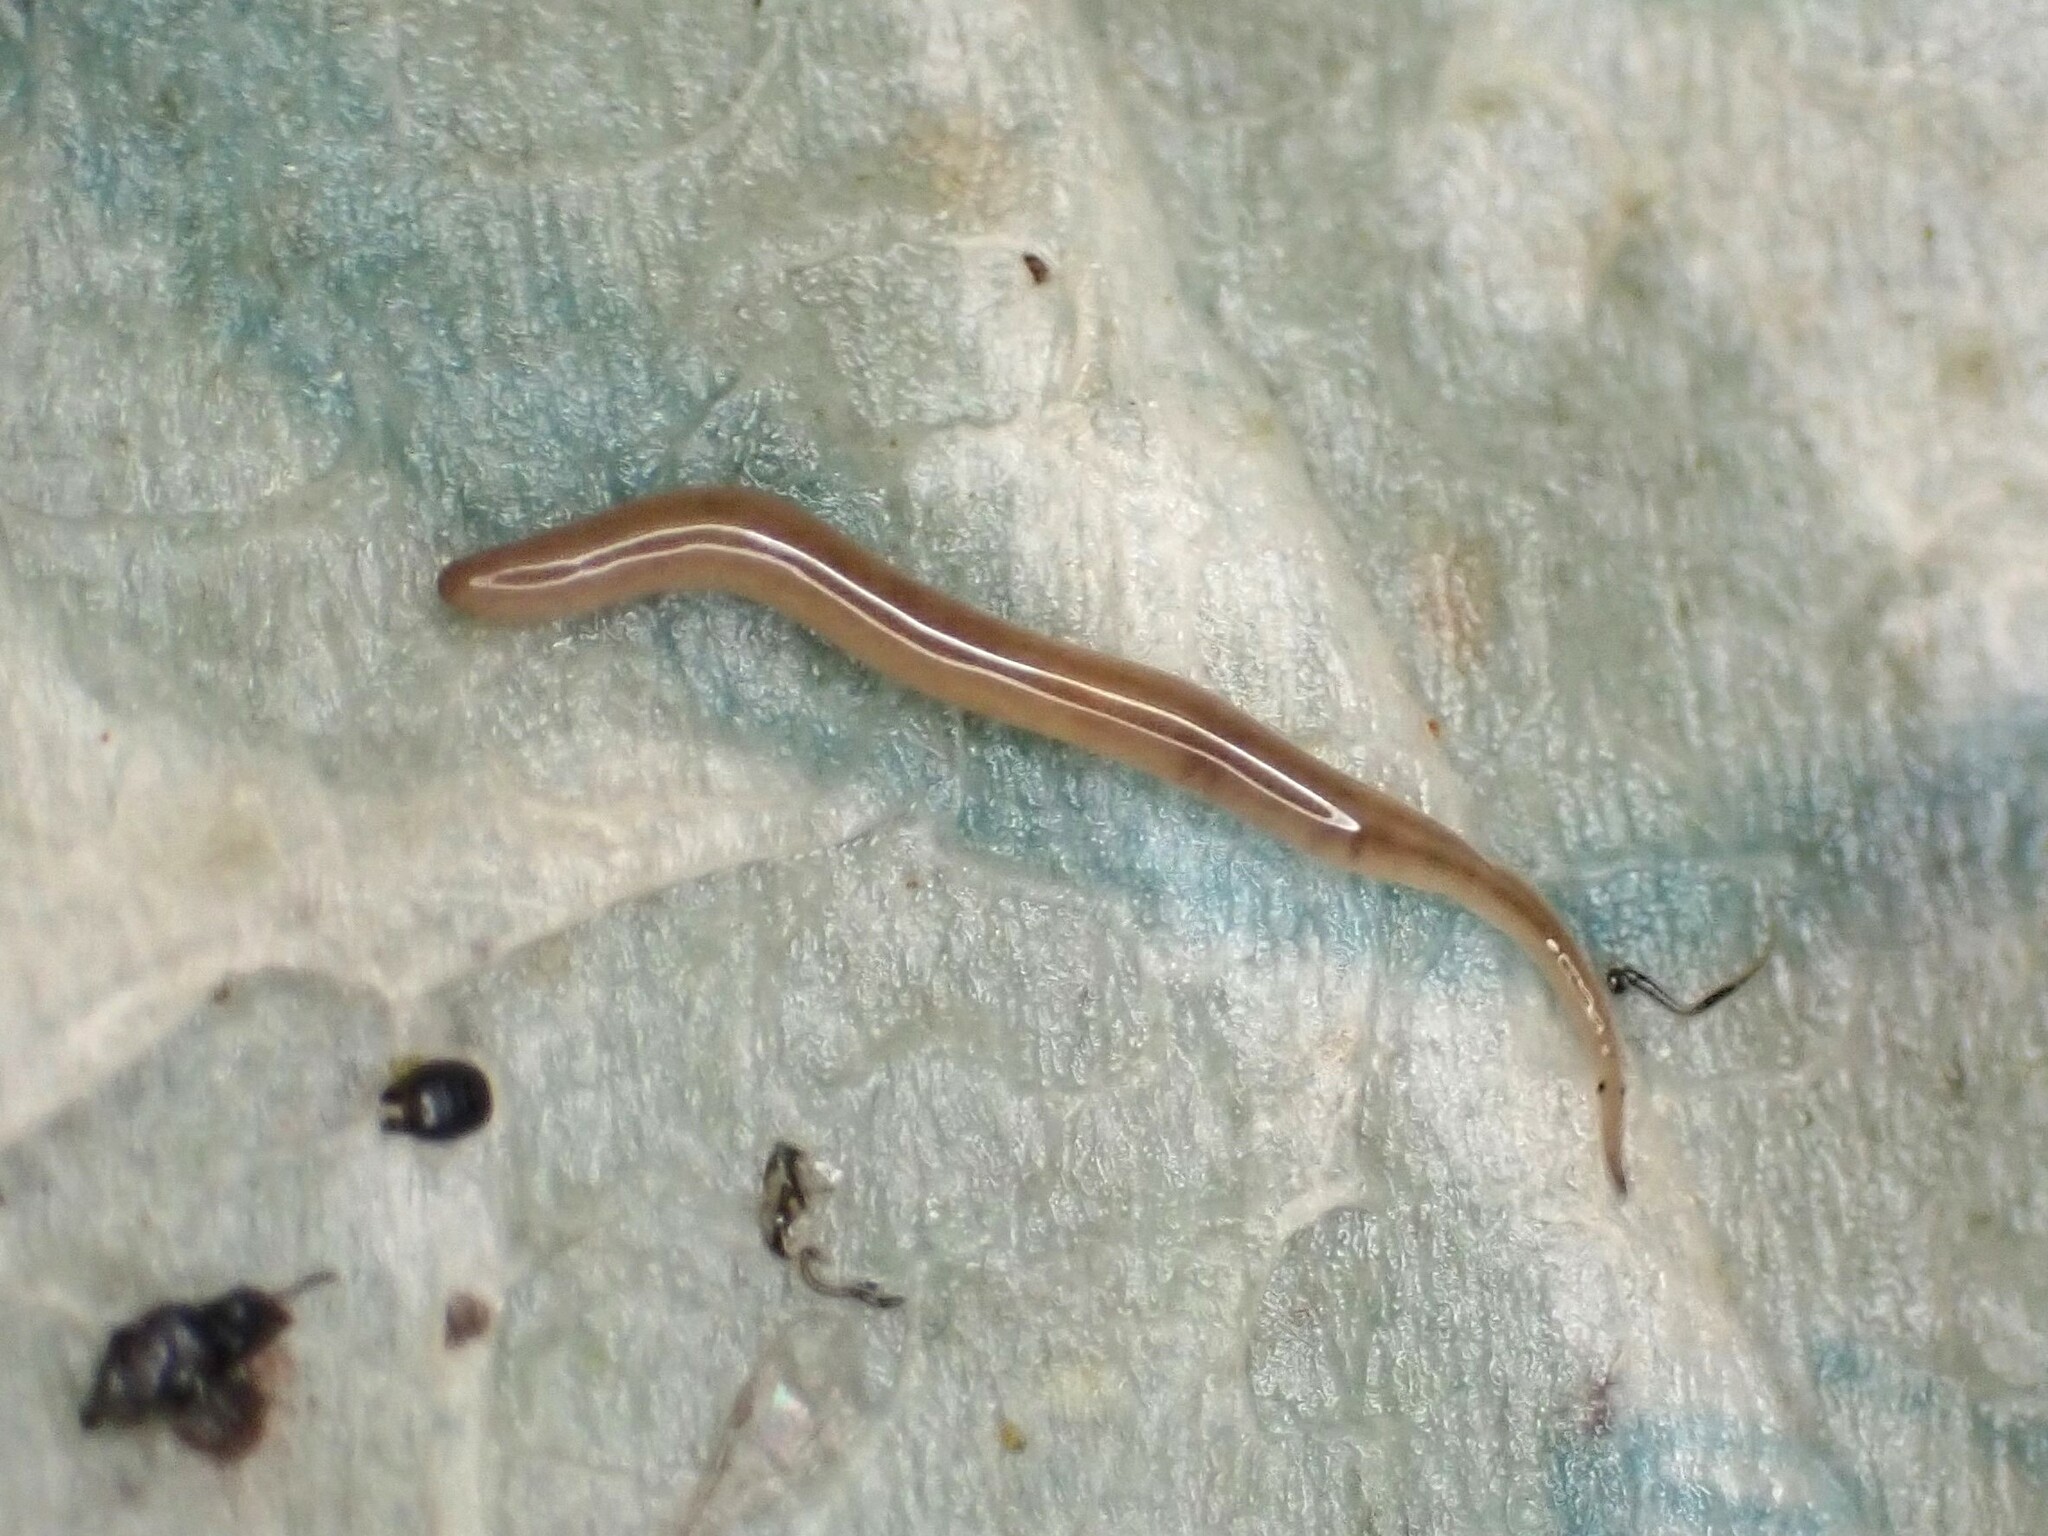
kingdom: Animalia
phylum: Platyhelminthes
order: Tricladida
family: Geoplanidae
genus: Rhynchodemus
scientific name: Rhynchodemus sylvaticus
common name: A flatworm
